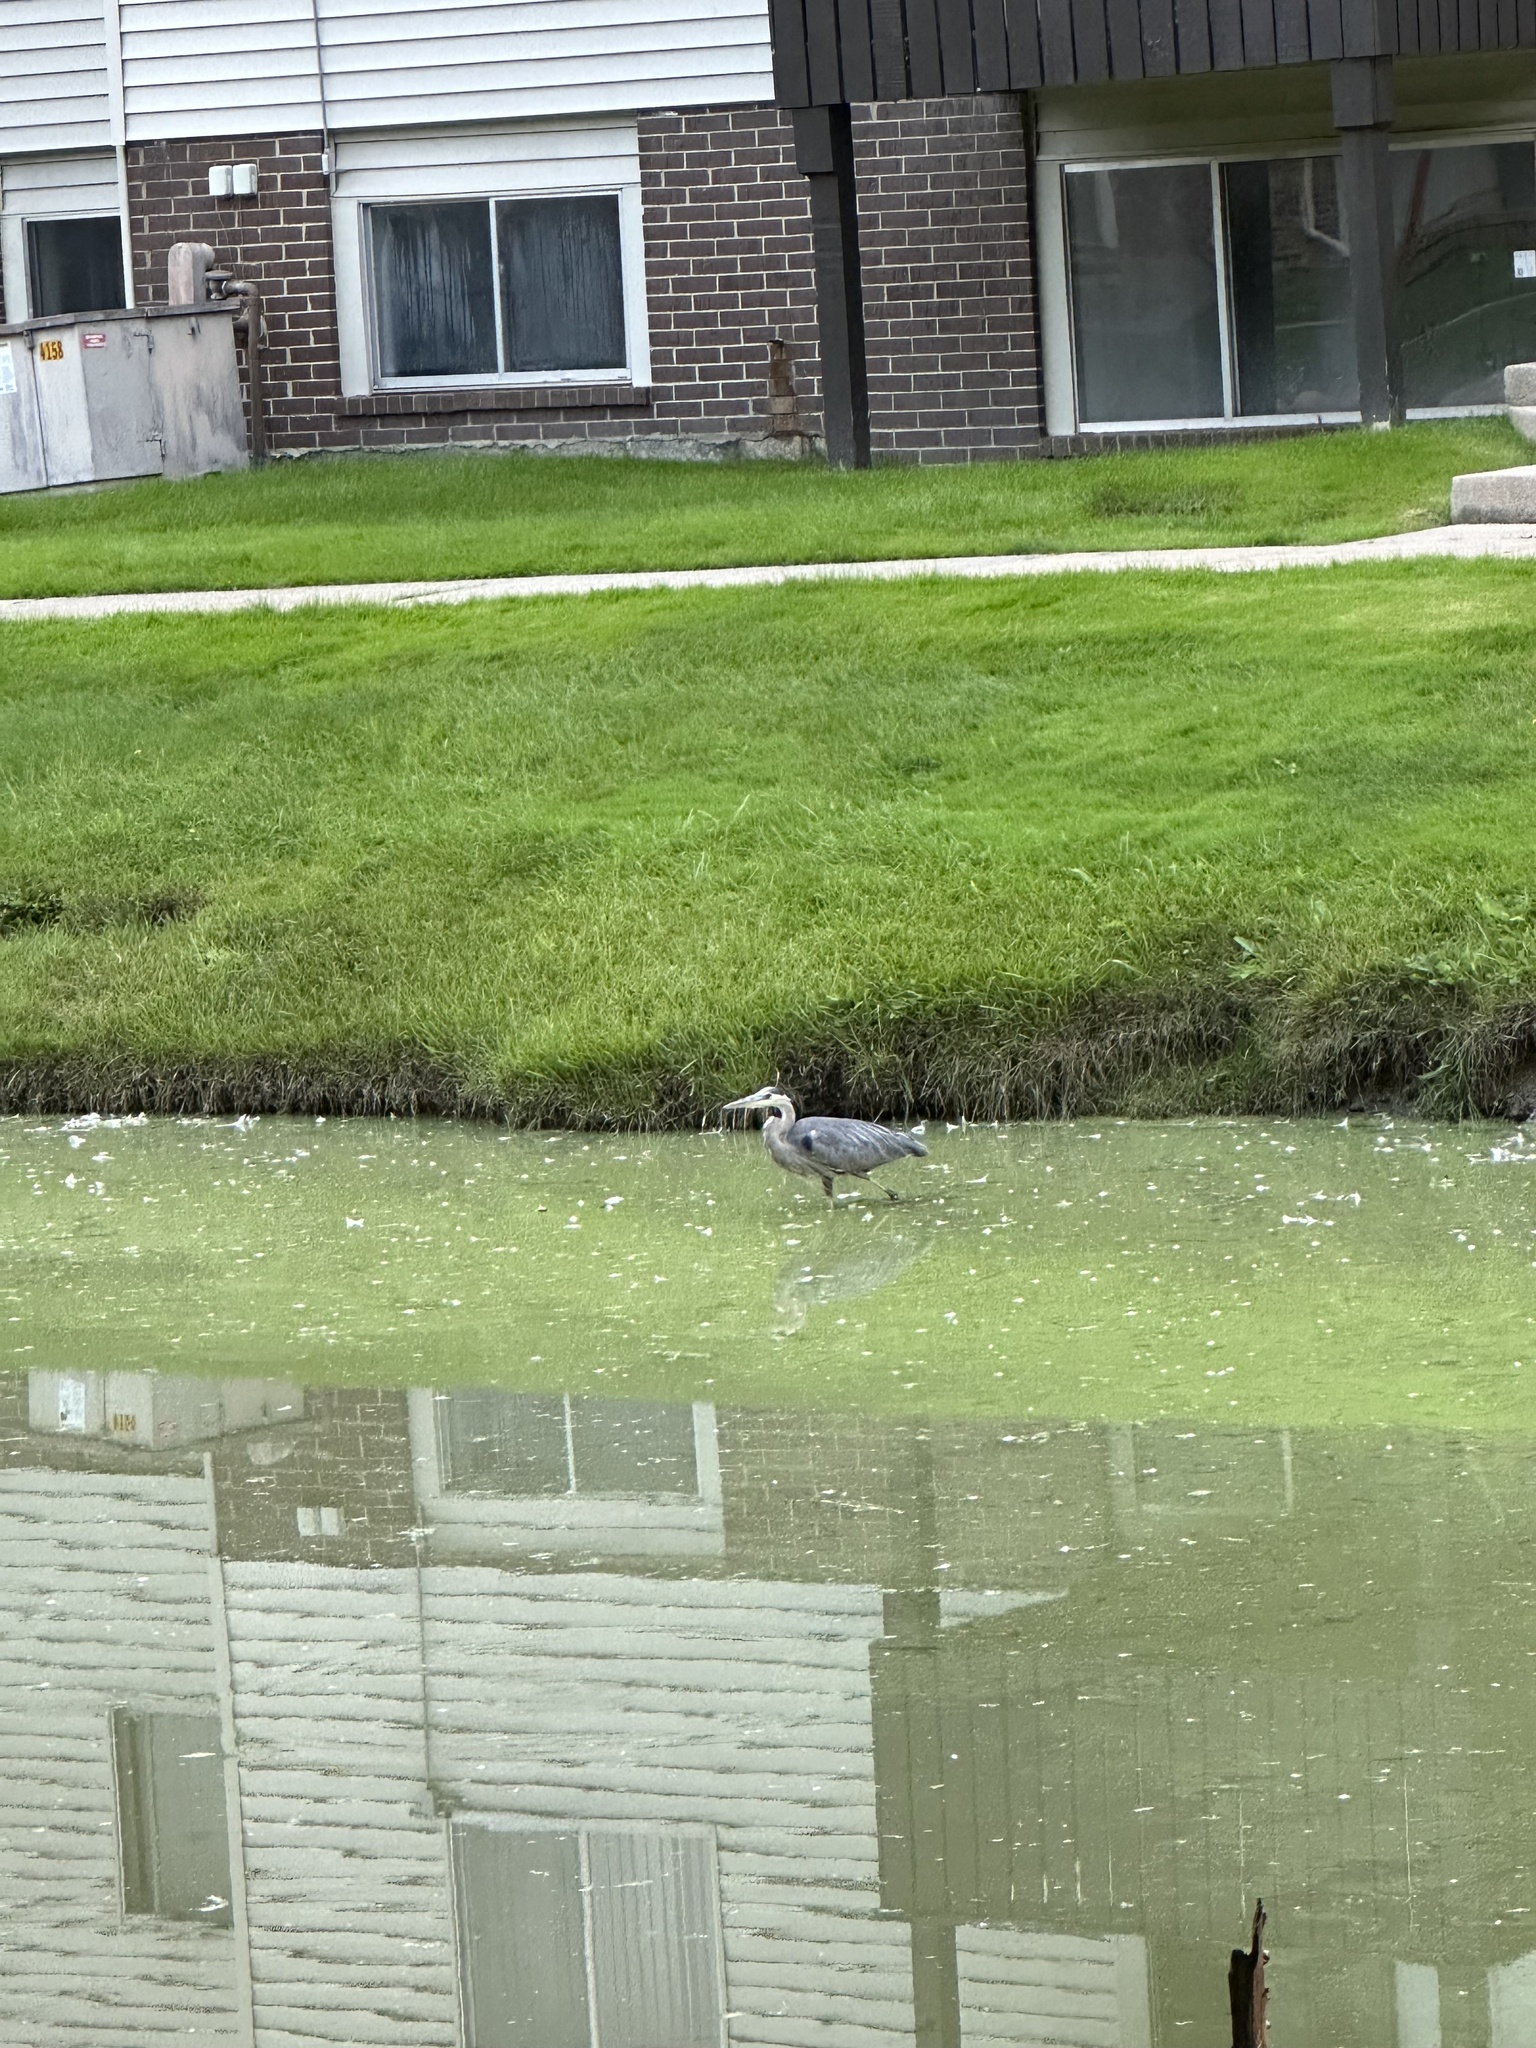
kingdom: Animalia
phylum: Chordata
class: Aves
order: Pelecaniformes
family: Ardeidae
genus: Ardea
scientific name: Ardea herodias
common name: Great blue heron
